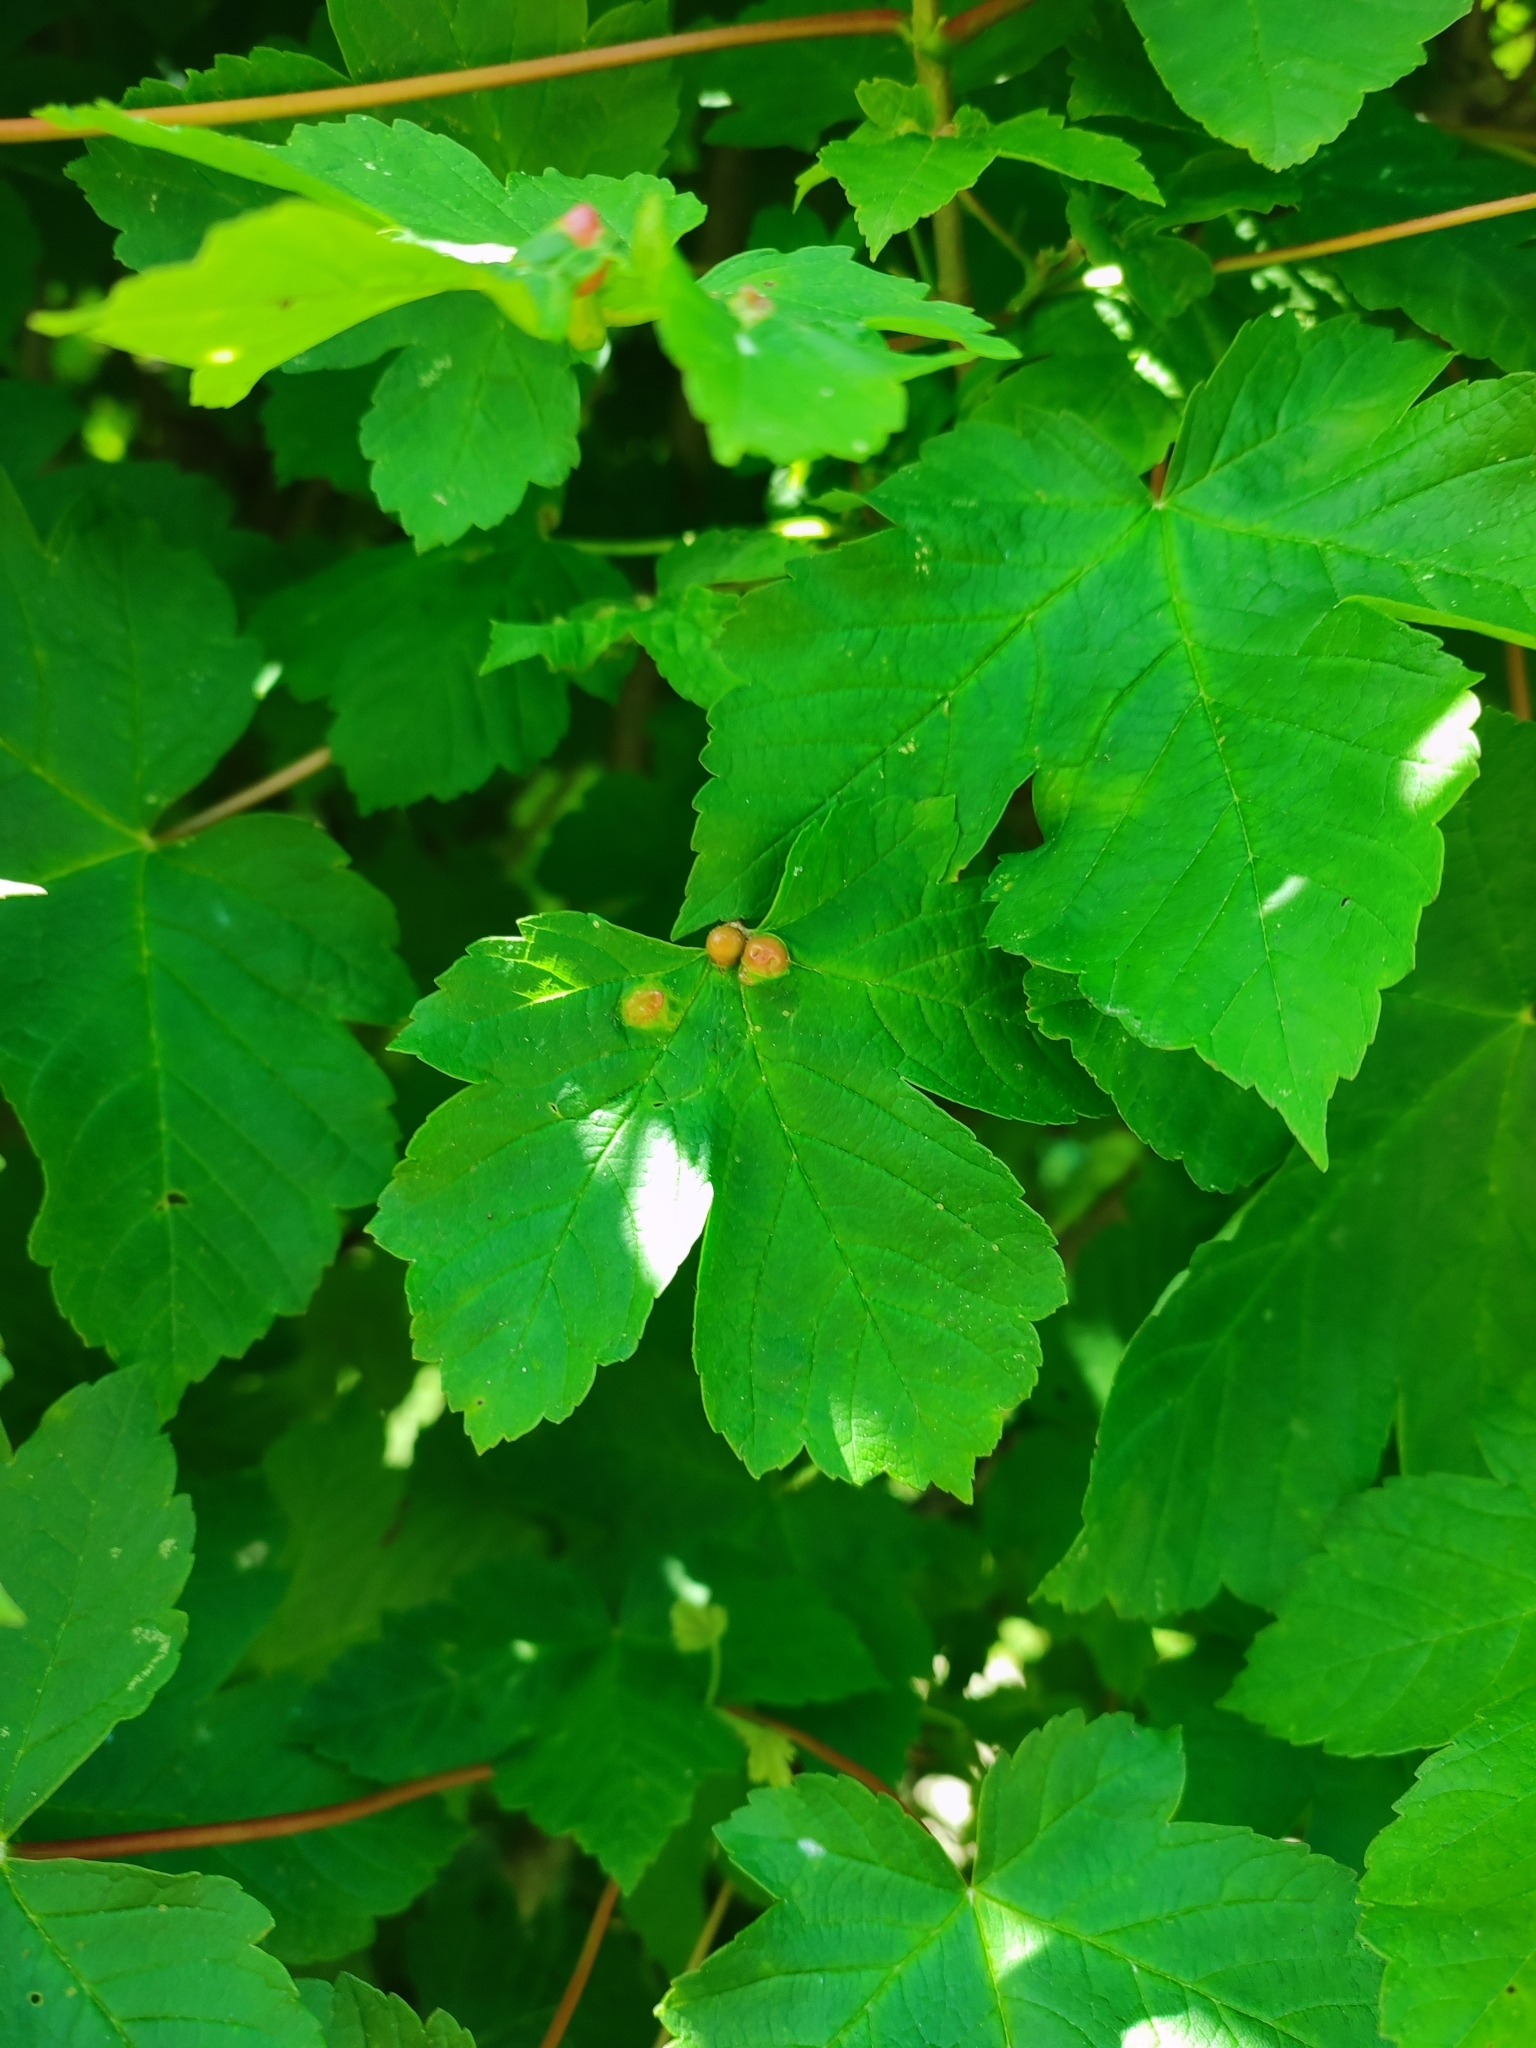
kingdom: Animalia
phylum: Arthropoda
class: Insecta
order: Hymenoptera
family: Cynipidae
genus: Pediaspis
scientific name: Pediaspis aceris
